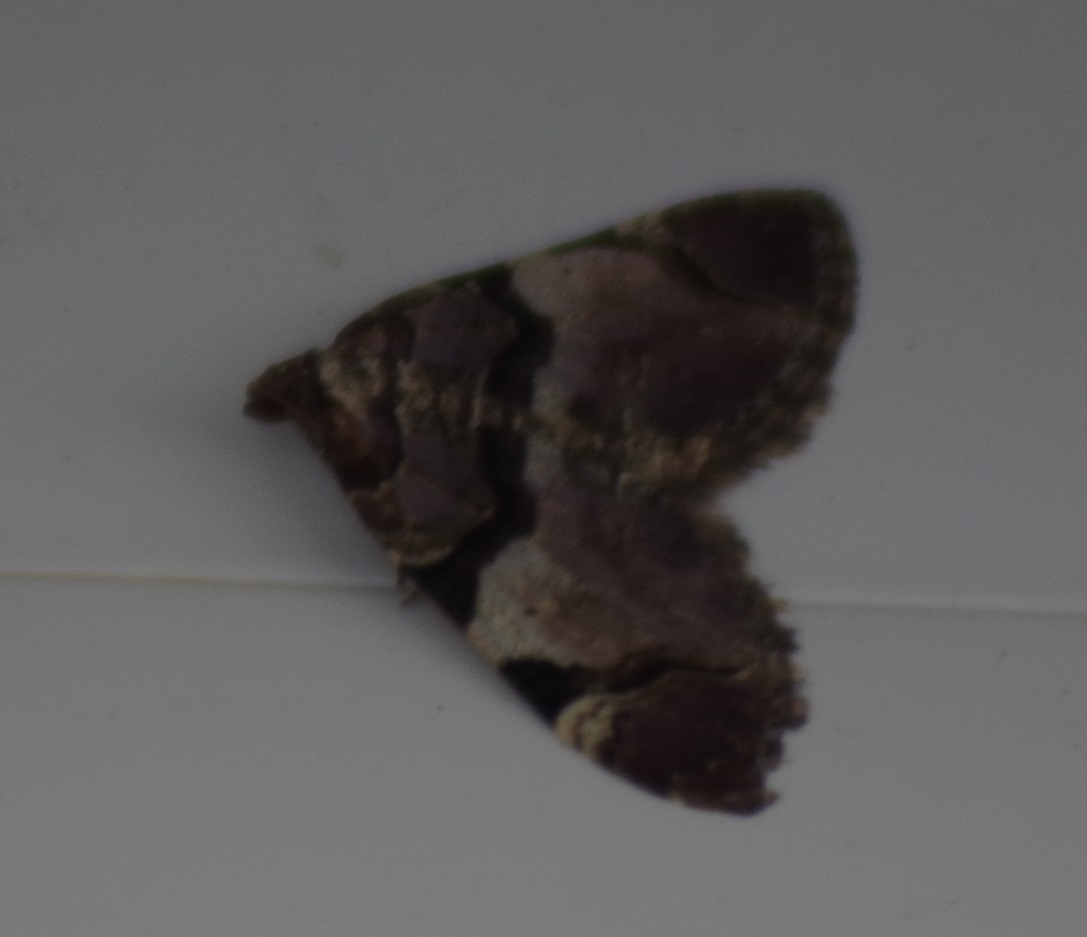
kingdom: Animalia
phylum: Arthropoda
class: Insecta
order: Lepidoptera
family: Geometridae
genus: Anticlea
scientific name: Anticlea derivata
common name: Streamer
